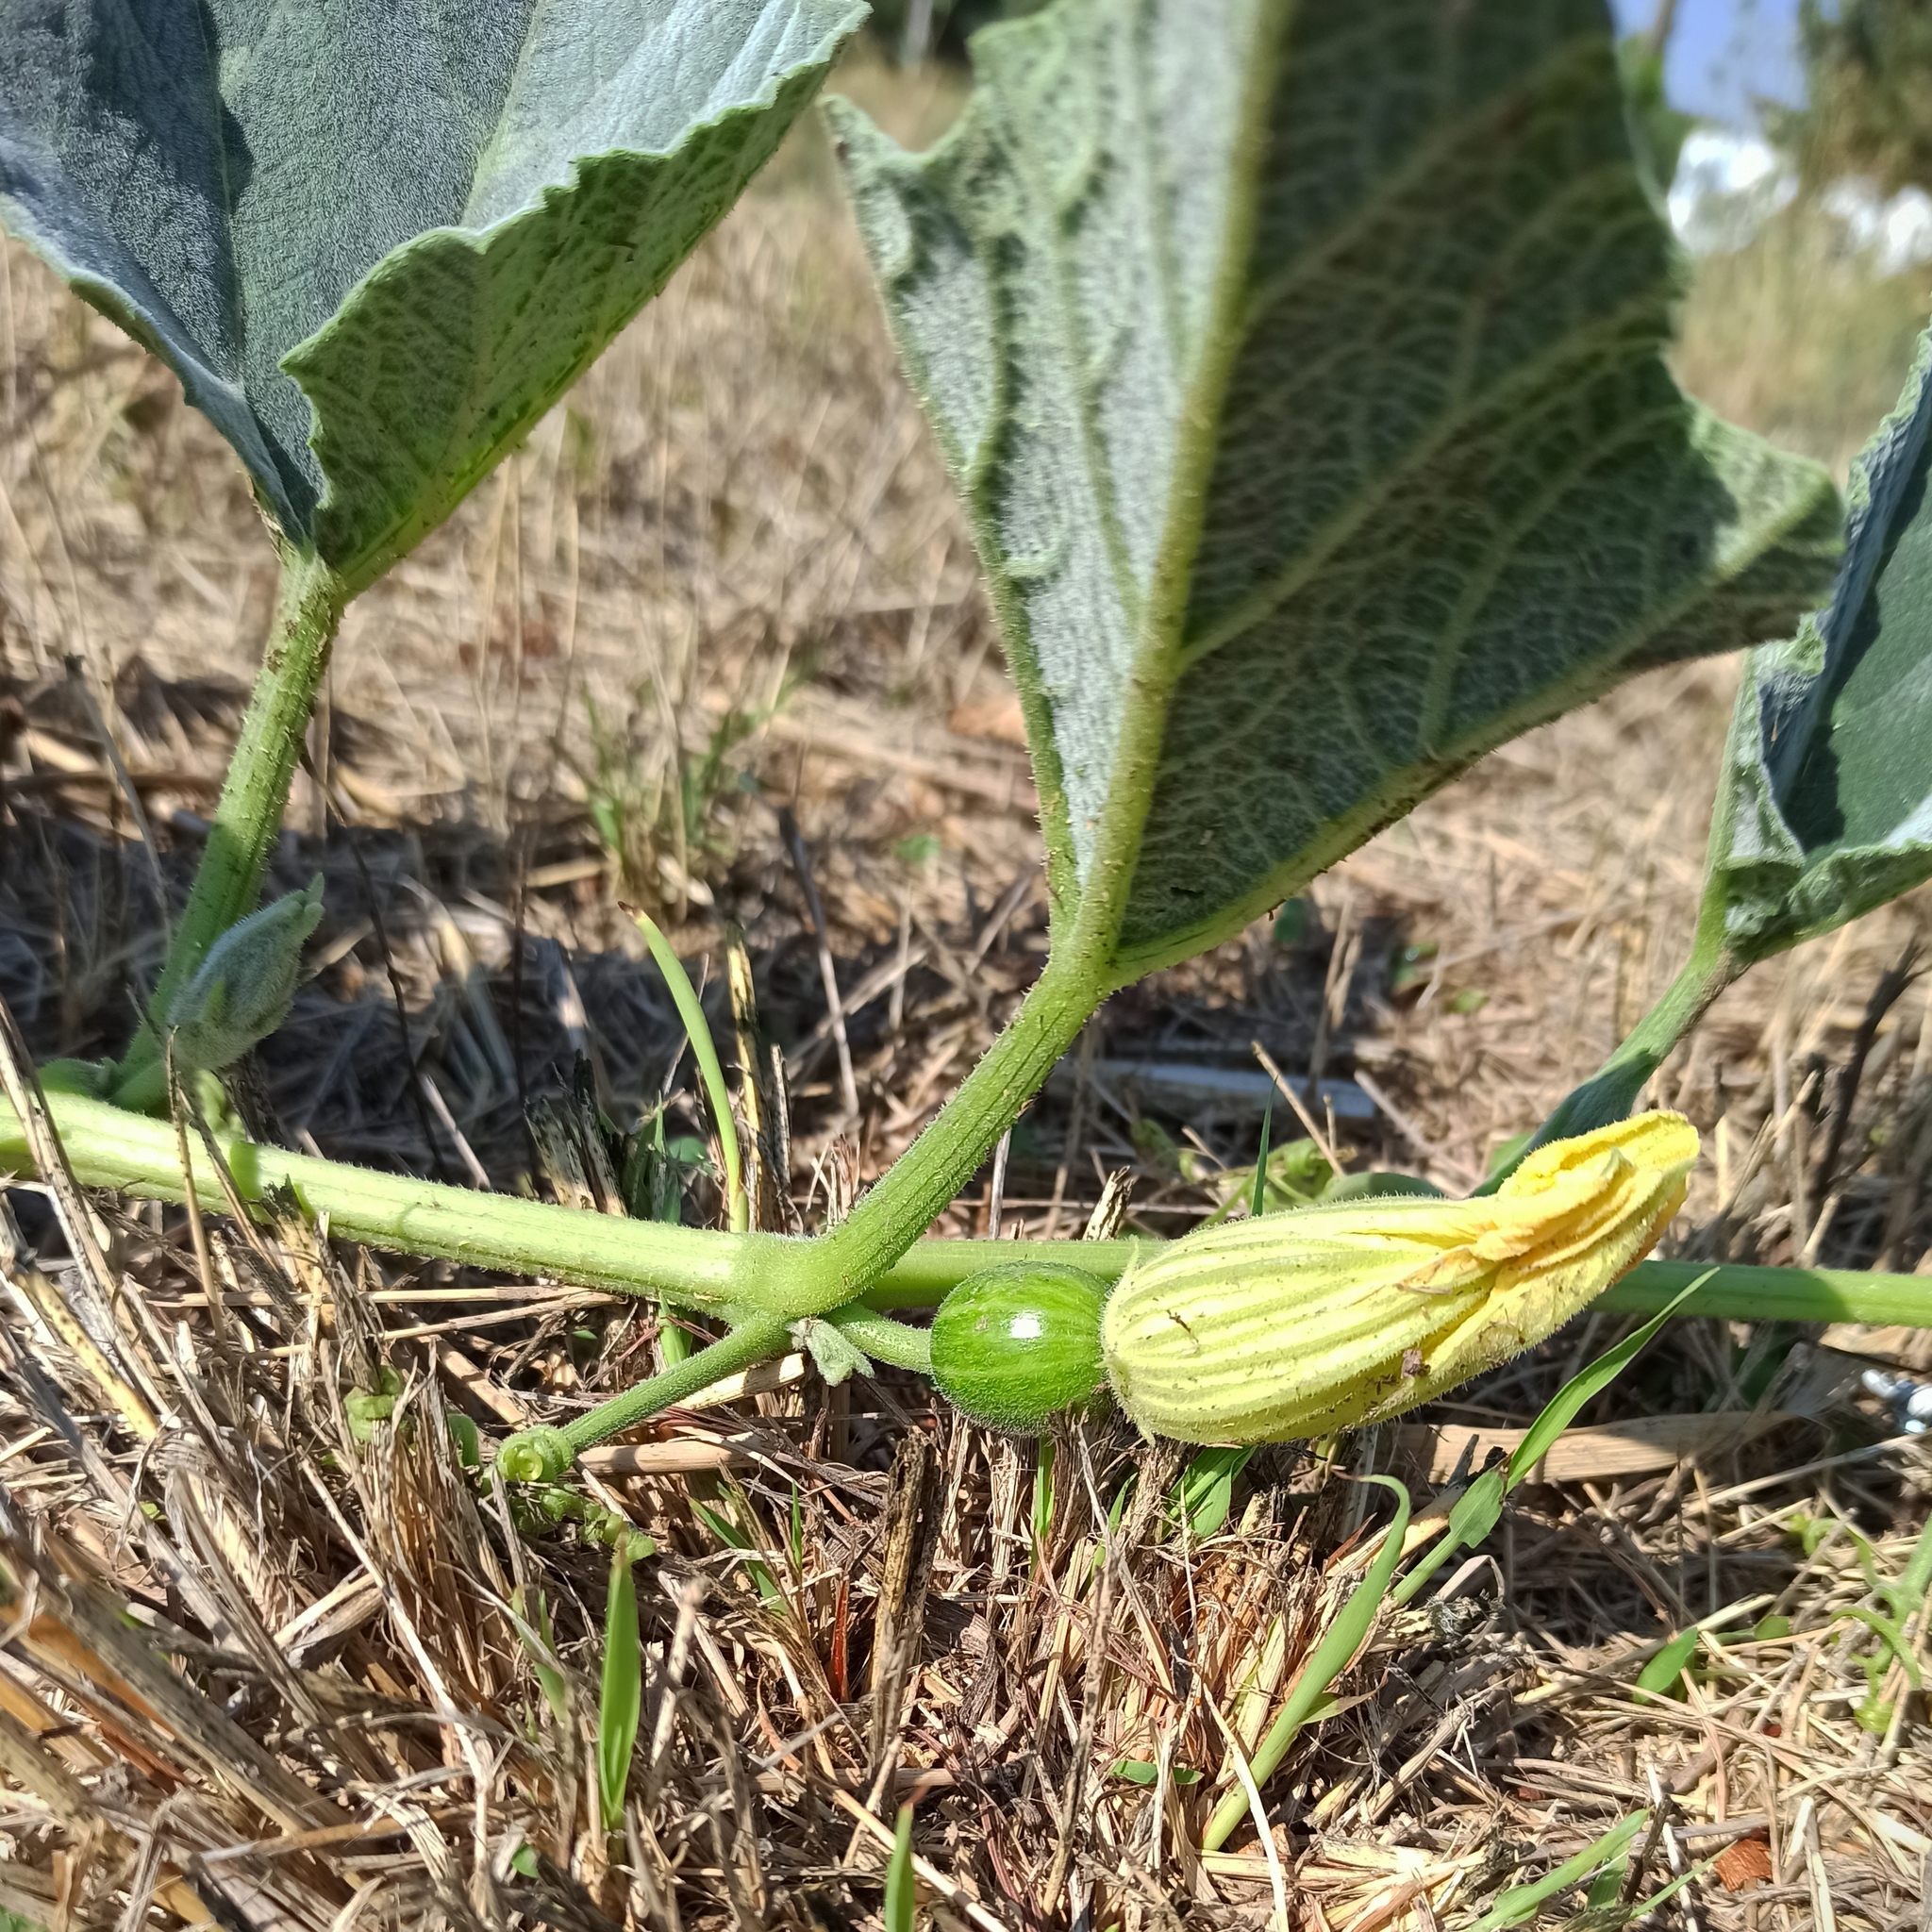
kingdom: Plantae
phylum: Tracheophyta
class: Magnoliopsida
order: Cucurbitales
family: Cucurbitaceae
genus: Cucurbita
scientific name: Cucurbita foetidissima
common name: Buffalo gourd
